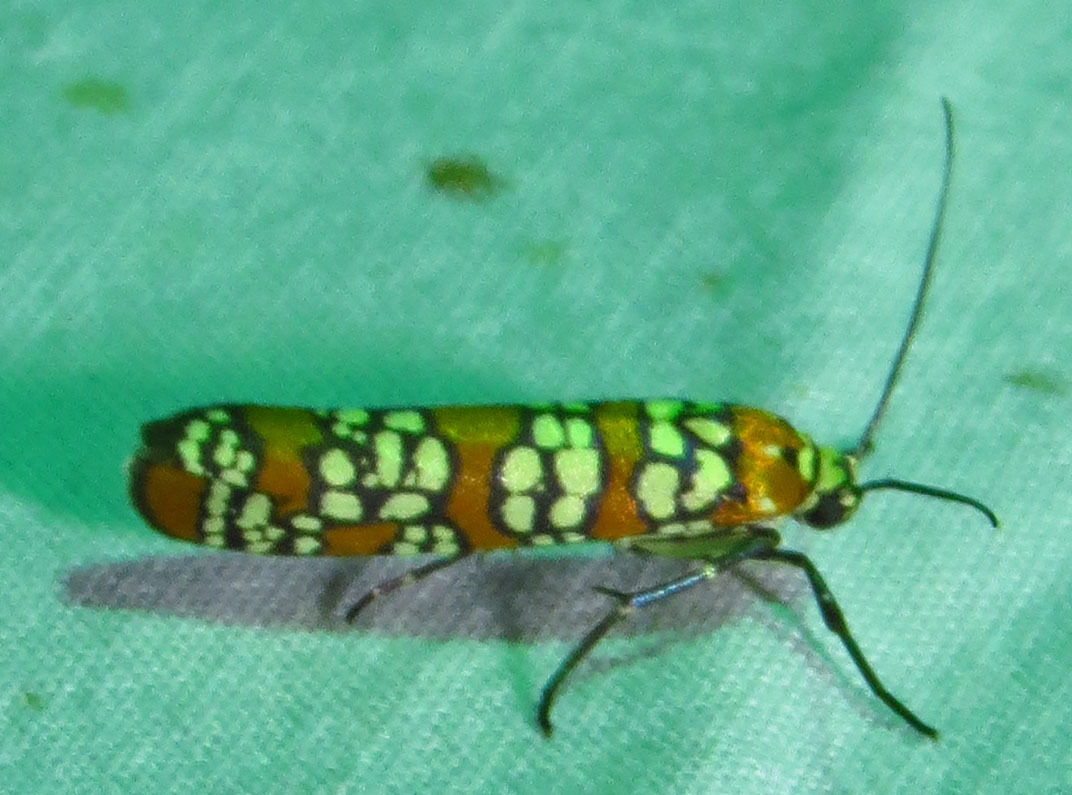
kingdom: Animalia
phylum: Arthropoda
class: Insecta
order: Lepidoptera
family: Attevidae
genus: Atteva
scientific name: Atteva punctella
